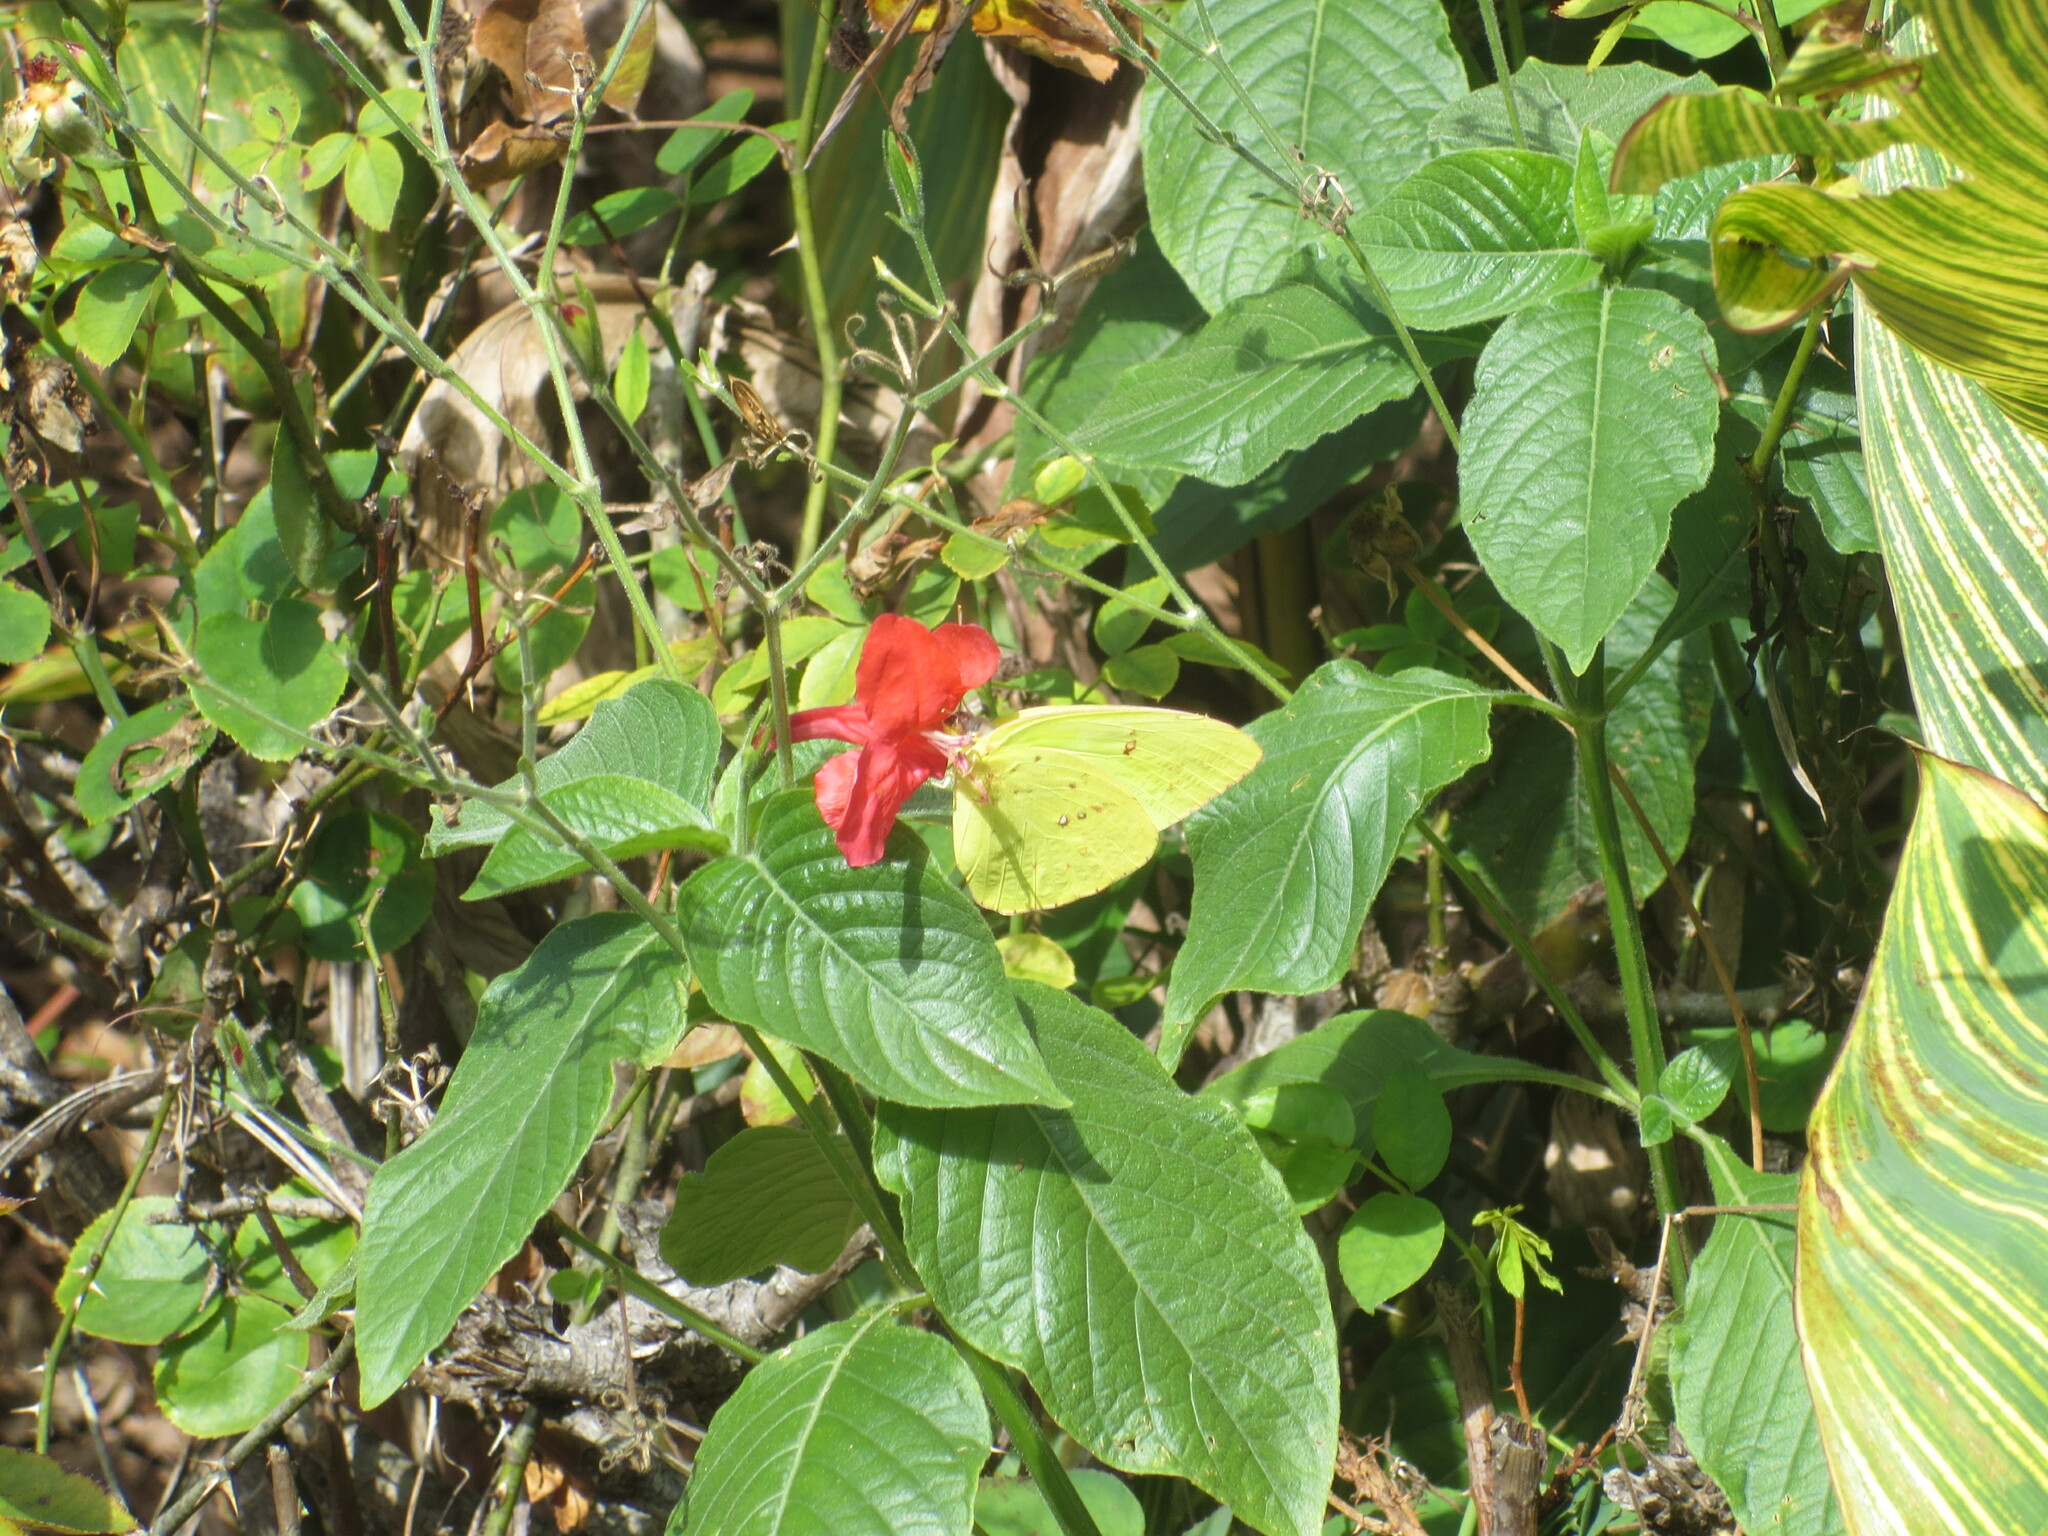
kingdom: Animalia
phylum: Arthropoda
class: Insecta
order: Lepidoptera
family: Pieridae
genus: Phoebis
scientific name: Phoebis sennae
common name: Cloudless sulphur
